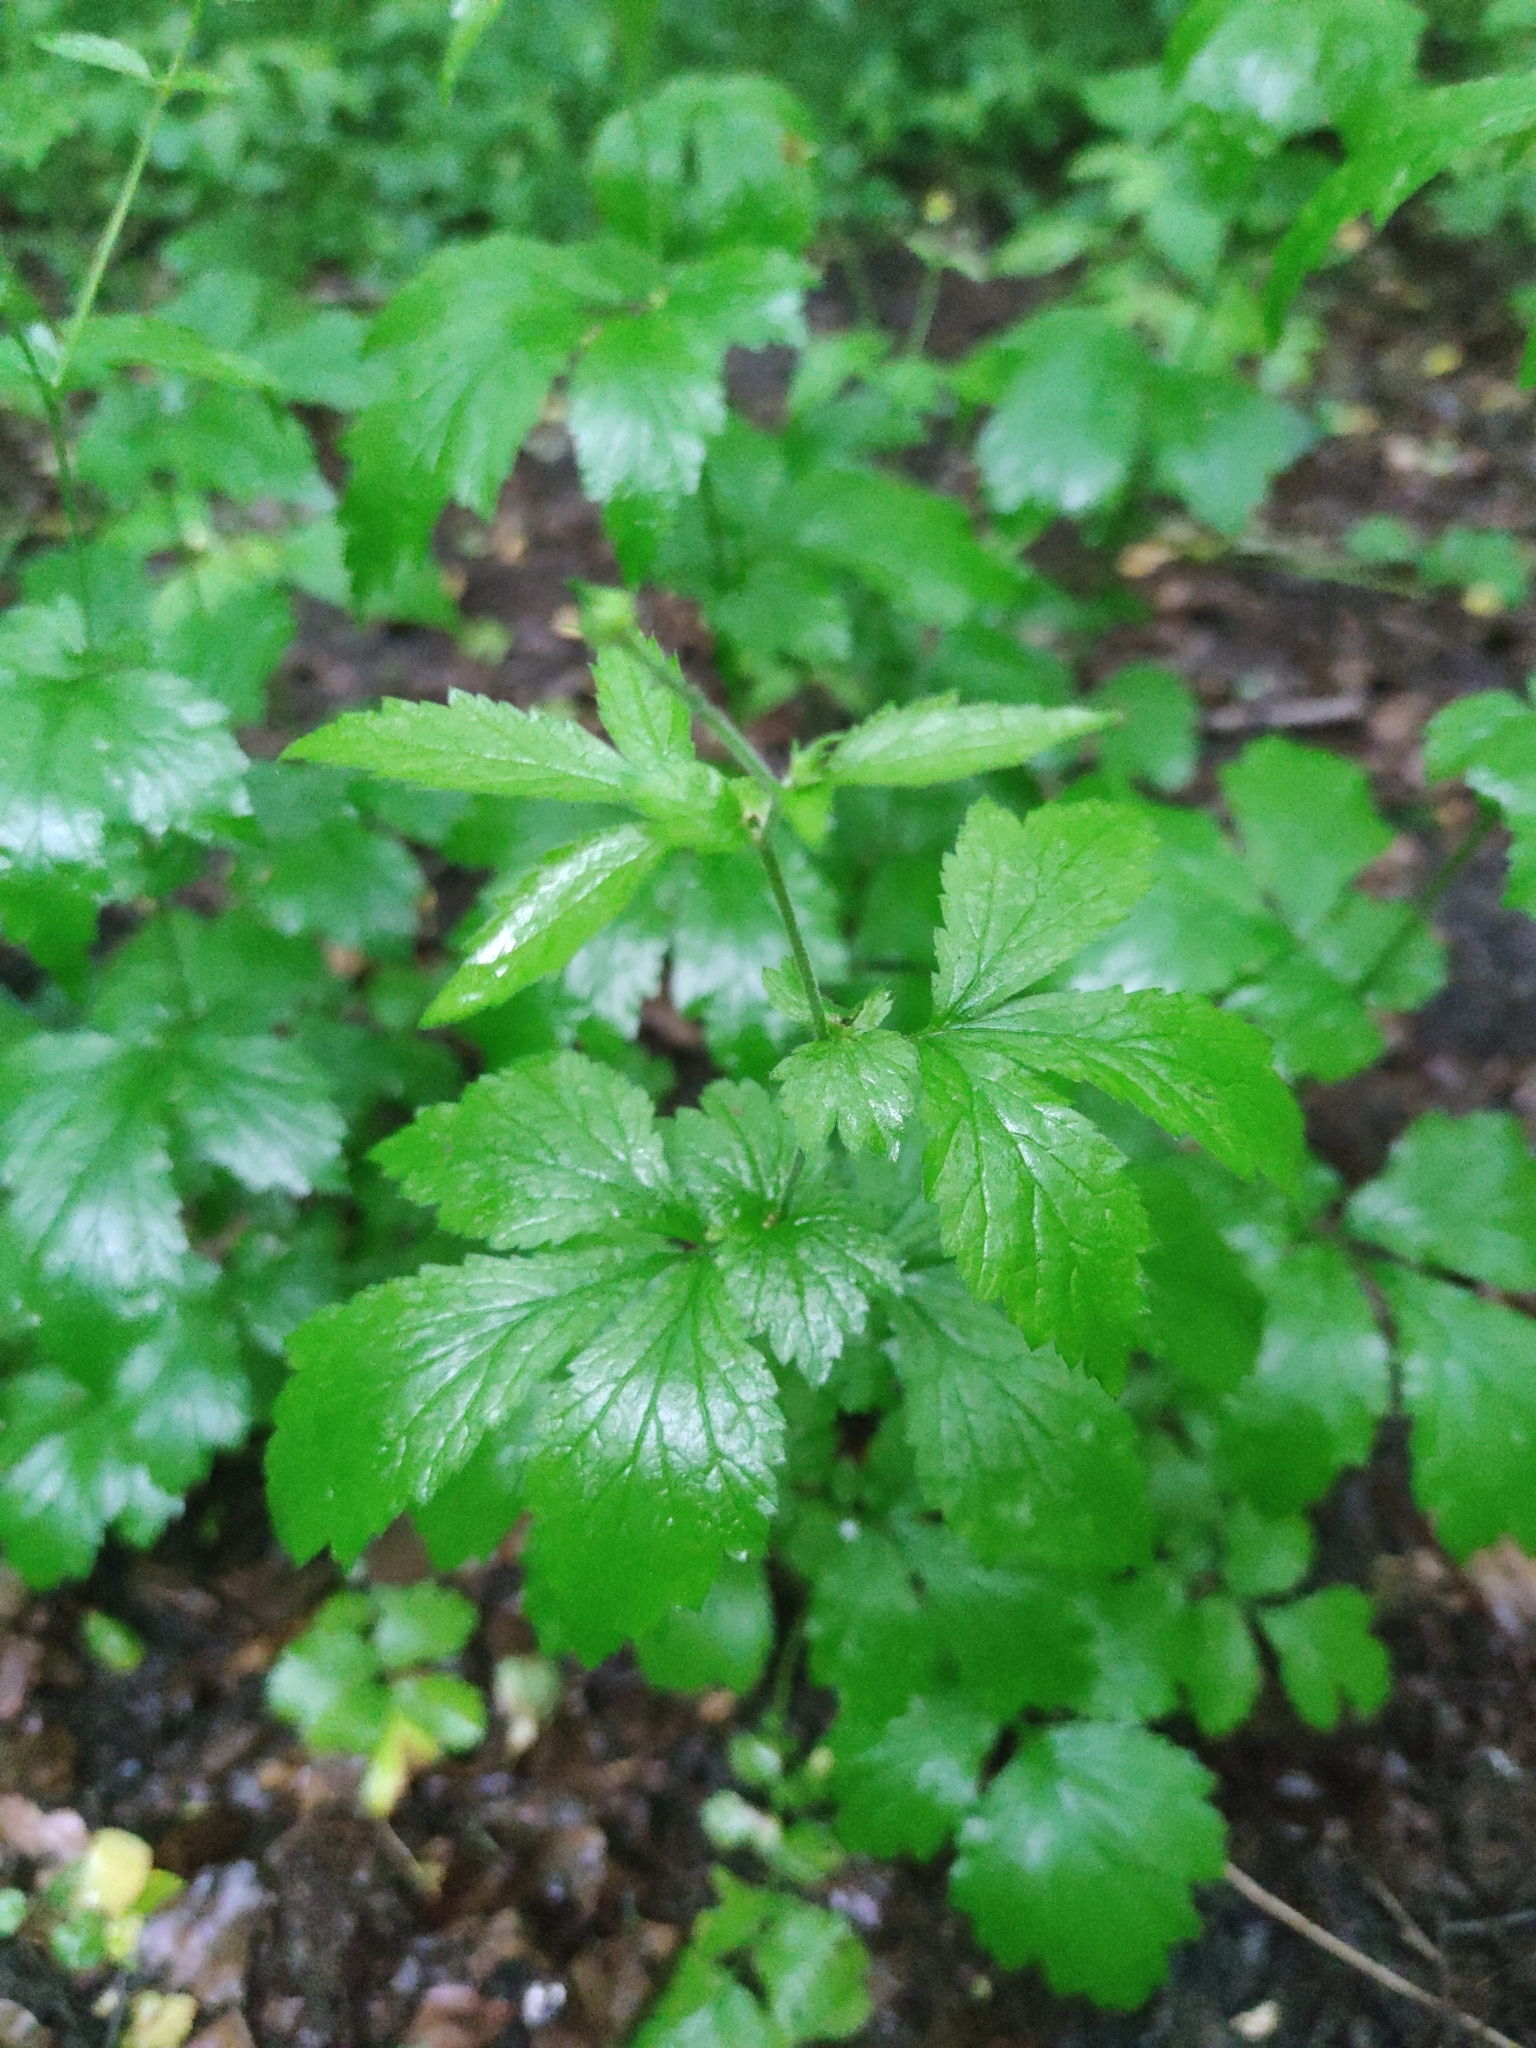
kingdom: Plantae
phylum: Tracheophyta
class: Magnoliopsida
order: Rosales
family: Rosaceae
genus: Geum
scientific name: Geum urbanum
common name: Wood avens
